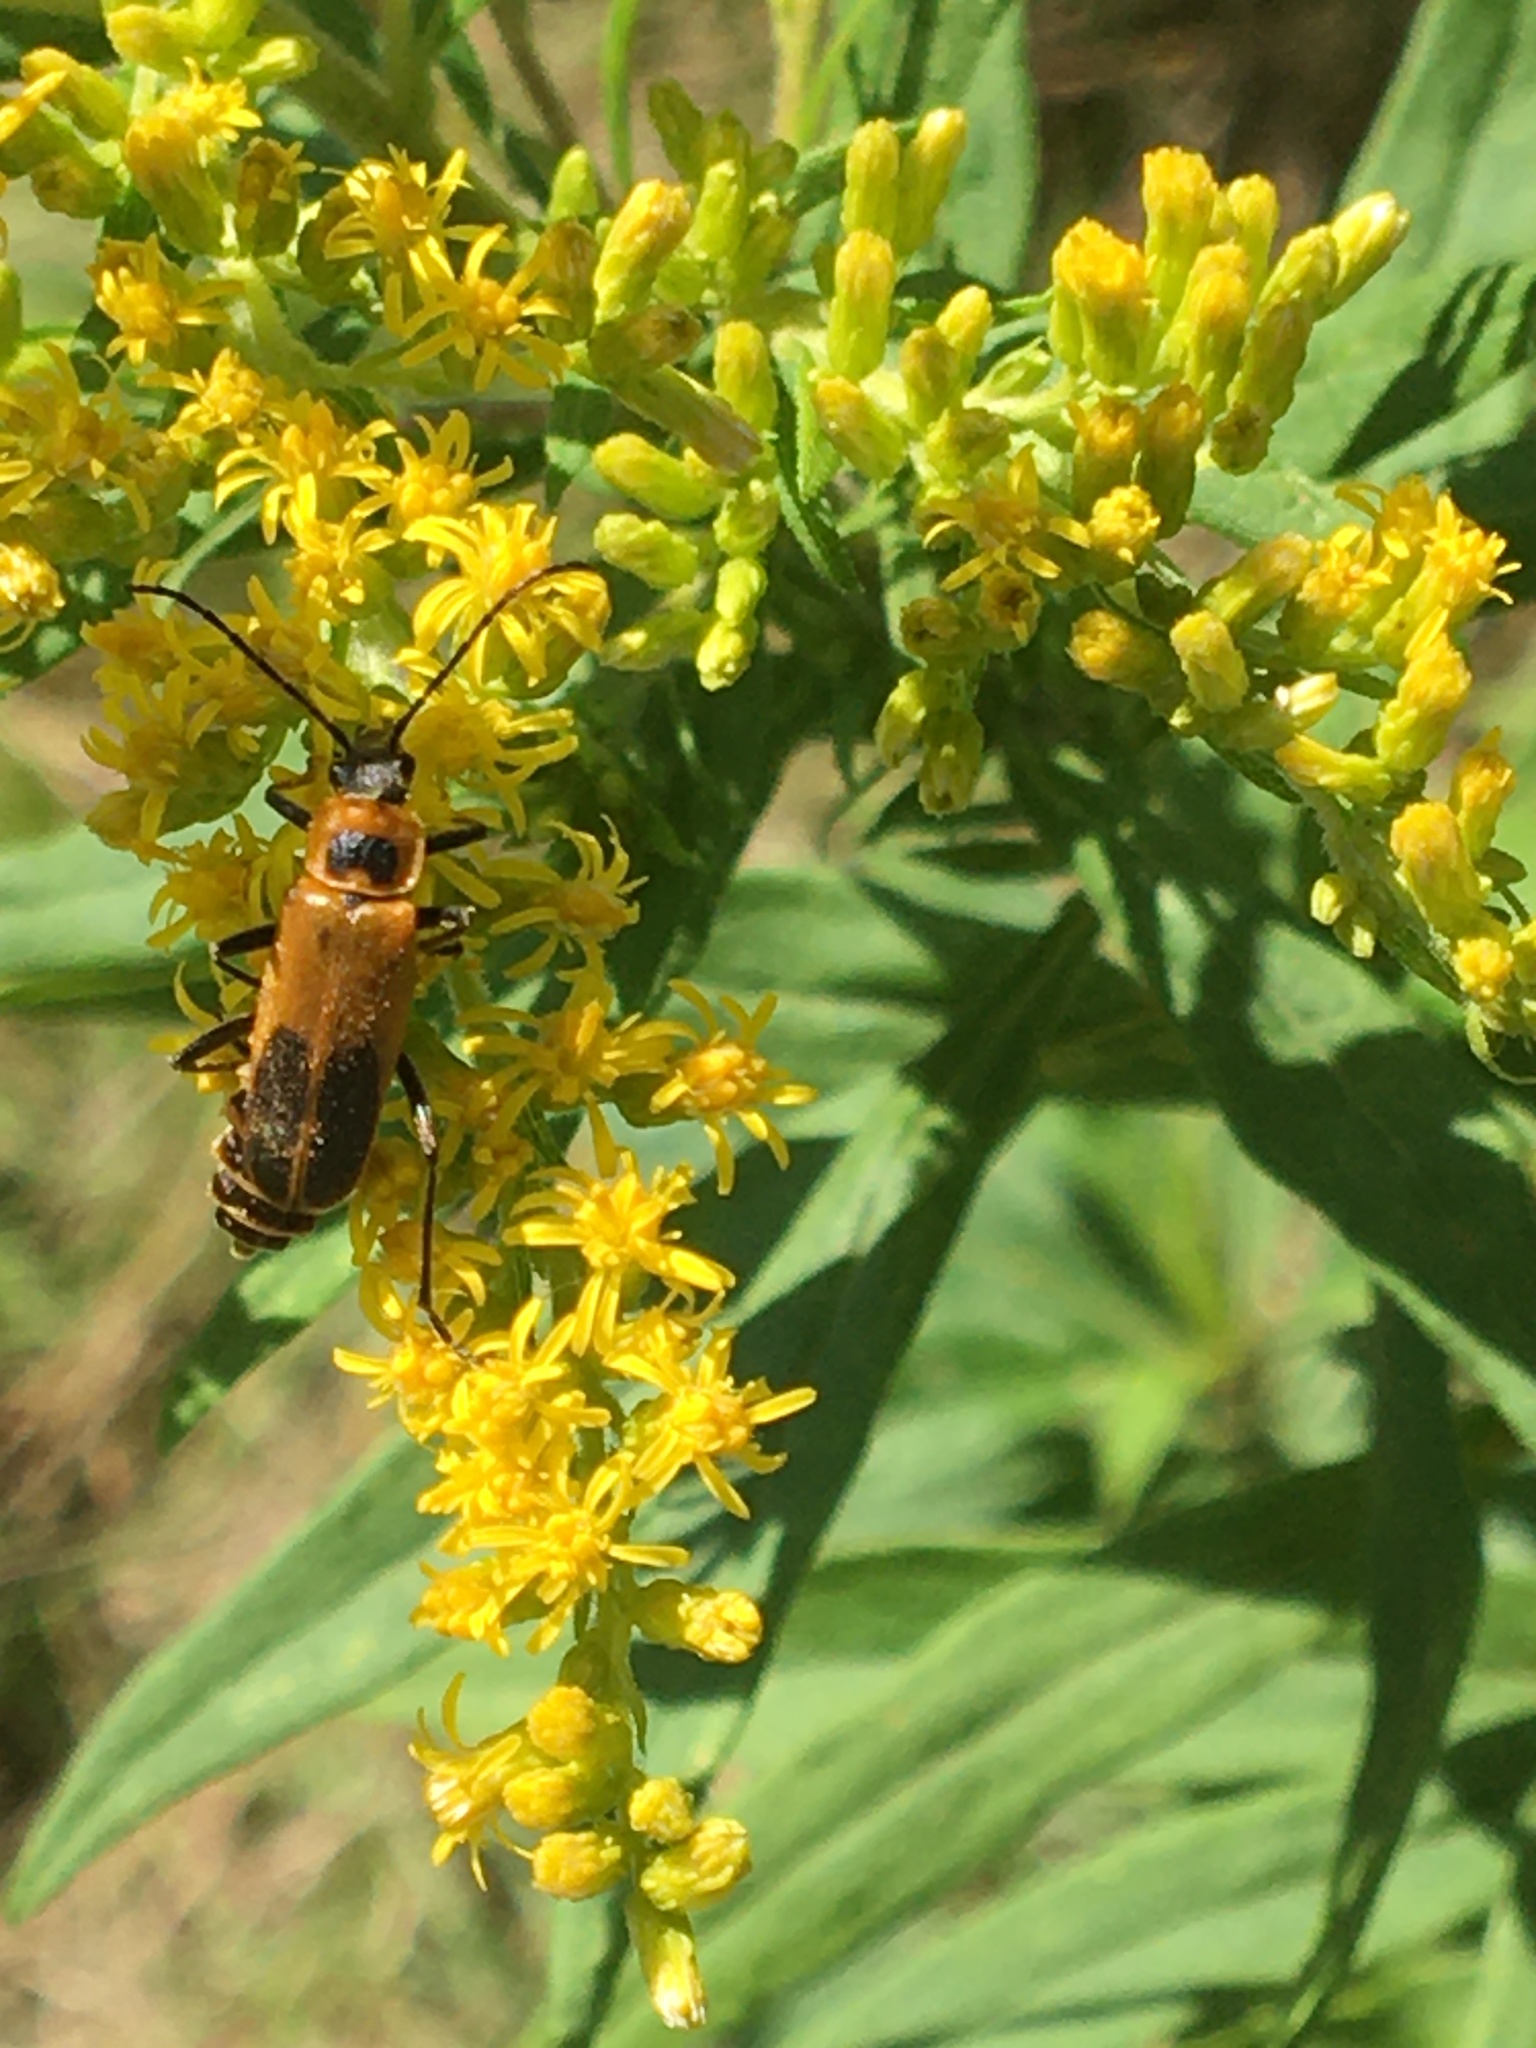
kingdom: Animalia
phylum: Arthropoda
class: Insecta
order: Coleoptera
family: Cantharidae
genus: Chauliognathus
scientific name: Chauliognathus pensylvanicus
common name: Goldenrod soldier beetle
